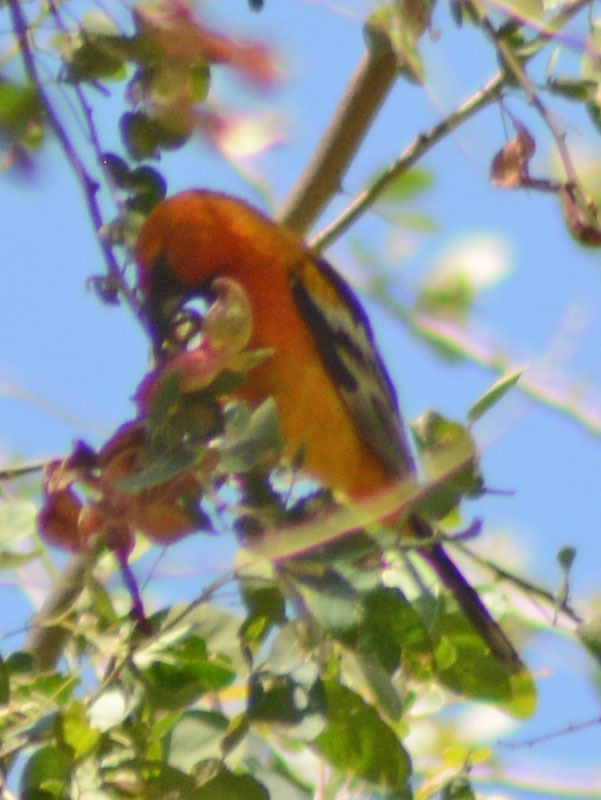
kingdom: Animalia
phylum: Chordata
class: Aves
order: Passeriformes
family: Icteridae
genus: Icterus
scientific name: Icterus pustulatus
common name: Streak-backed oriole
